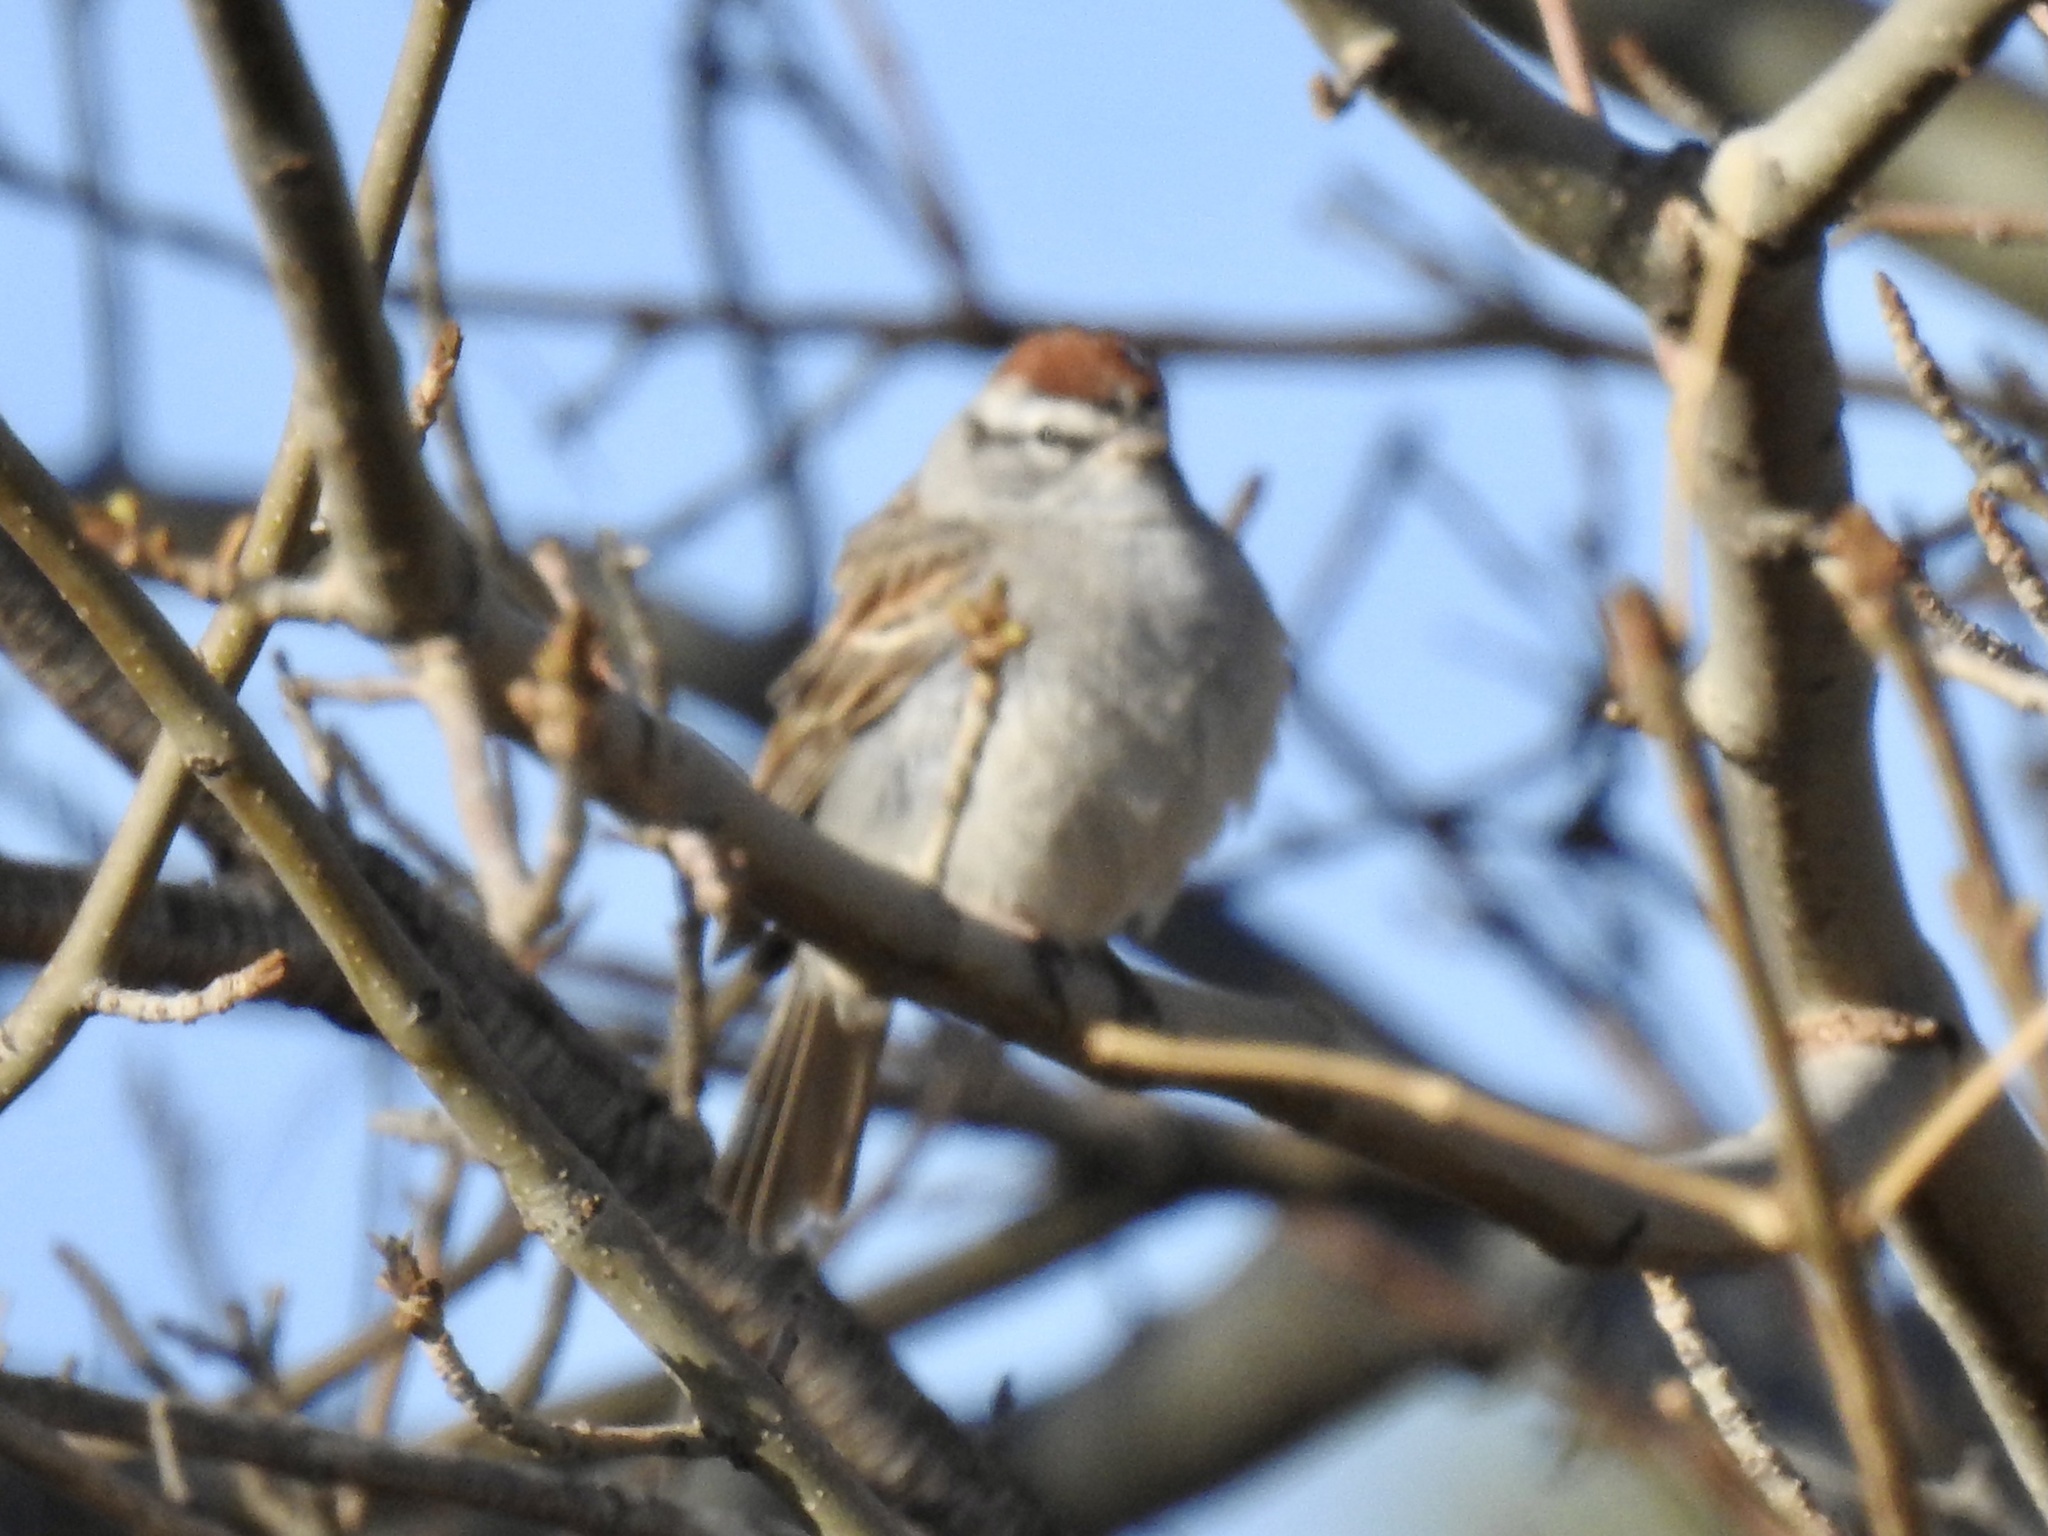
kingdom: Animalia
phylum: Chordata
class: Aves
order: Passeriformes
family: Passerellidae
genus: Spizella
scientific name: Spizella passerina
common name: Chipping sparrow
